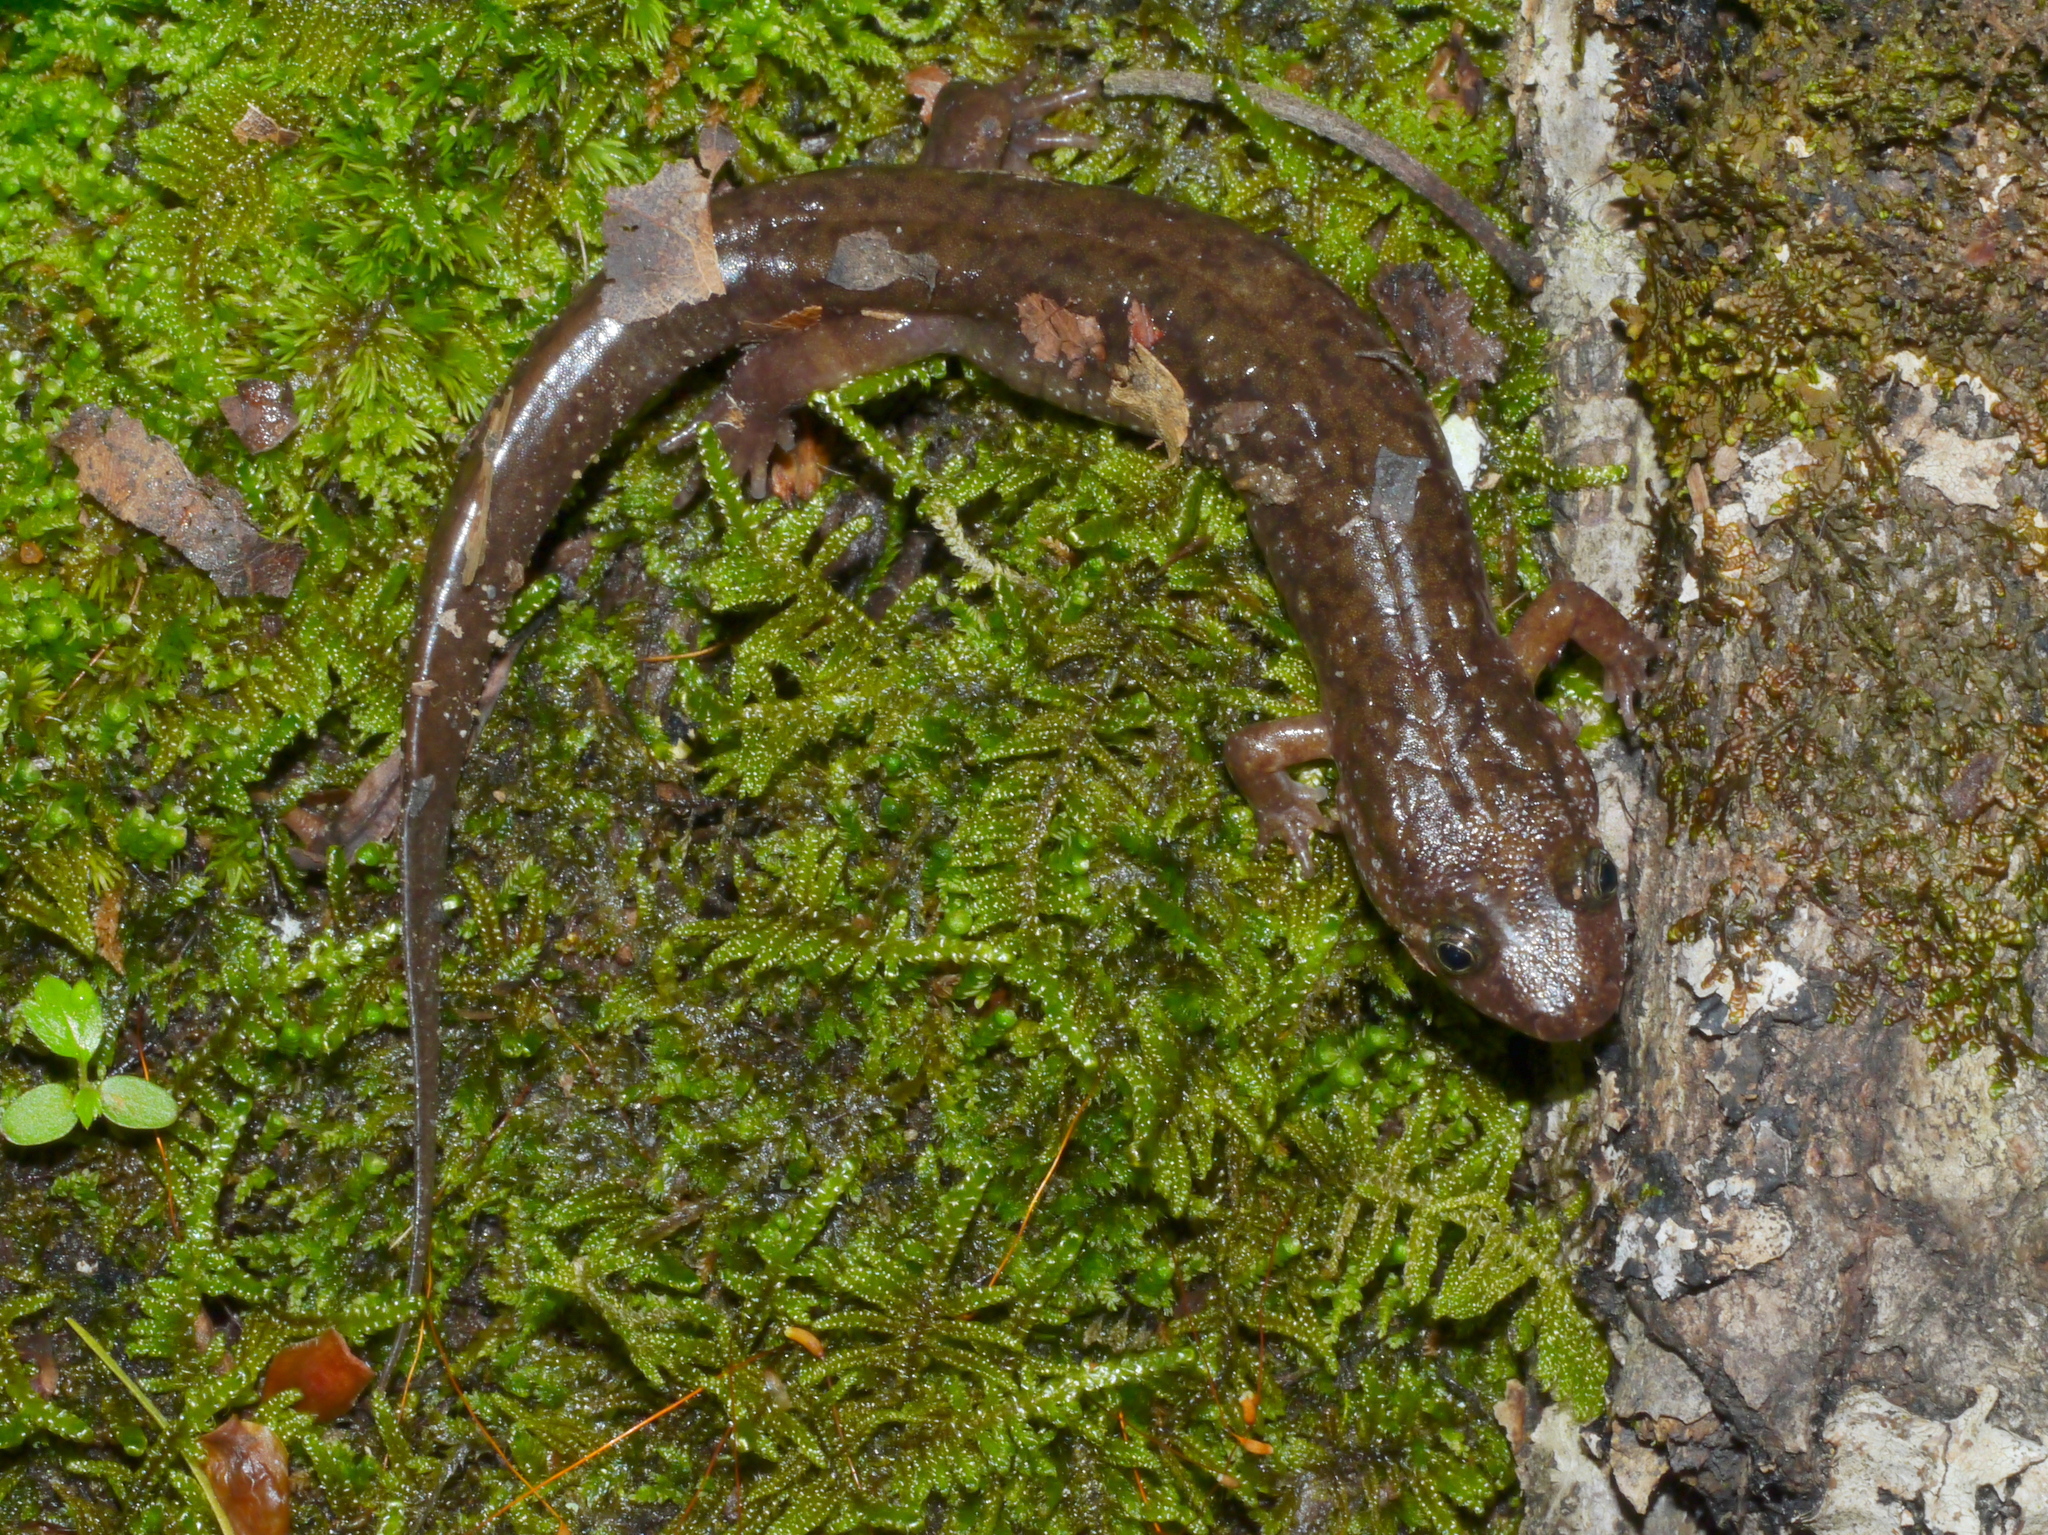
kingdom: Animalia
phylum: Chordata
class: Amphibia
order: Caudata
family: Plethodontidae
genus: Desmognathus
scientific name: Desmognathus monticola
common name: Seal salamander
